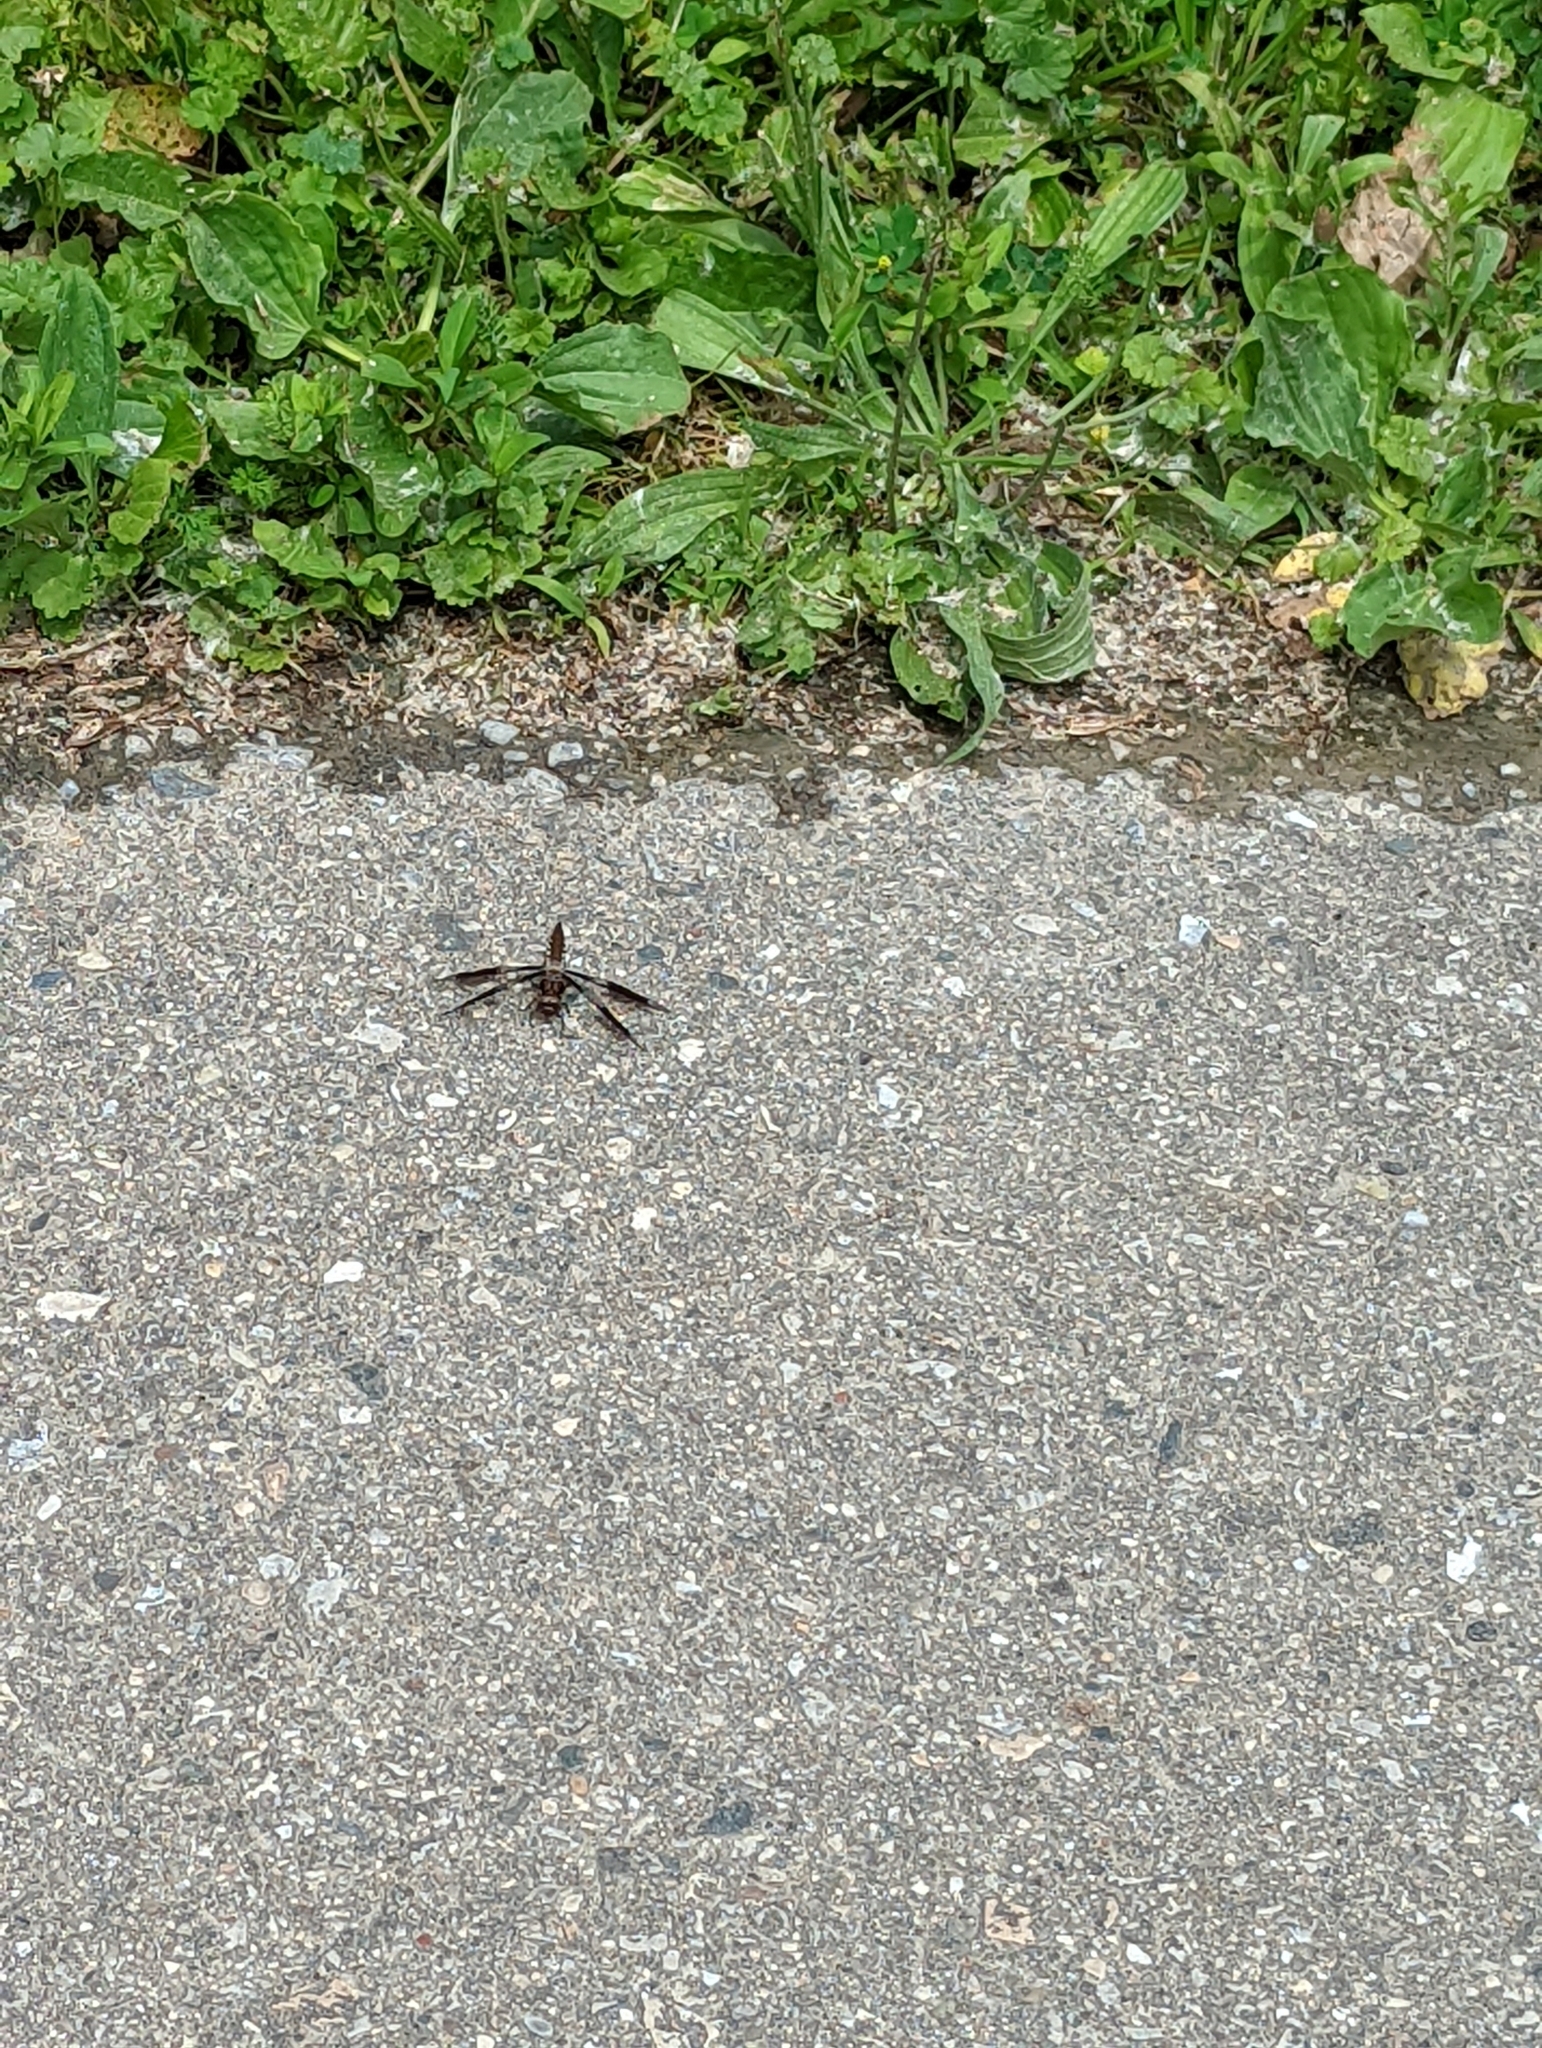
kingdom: Animalia
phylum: Arthropoda
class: Insecta
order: Odonata
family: Libellulidae
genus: Plathemis
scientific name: Plathemis lydia
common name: Common whitetail
